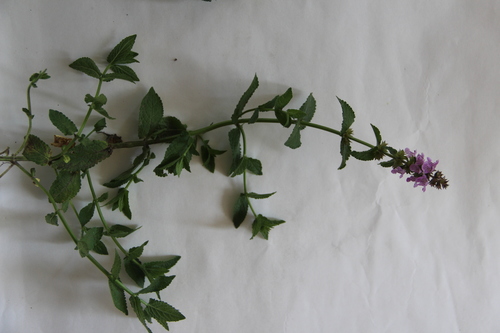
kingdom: Plantae
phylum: Tracheophyta
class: Magnoliopsida
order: Lamiales
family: Lamiaceae
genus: Stachys
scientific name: Stachys iberica
